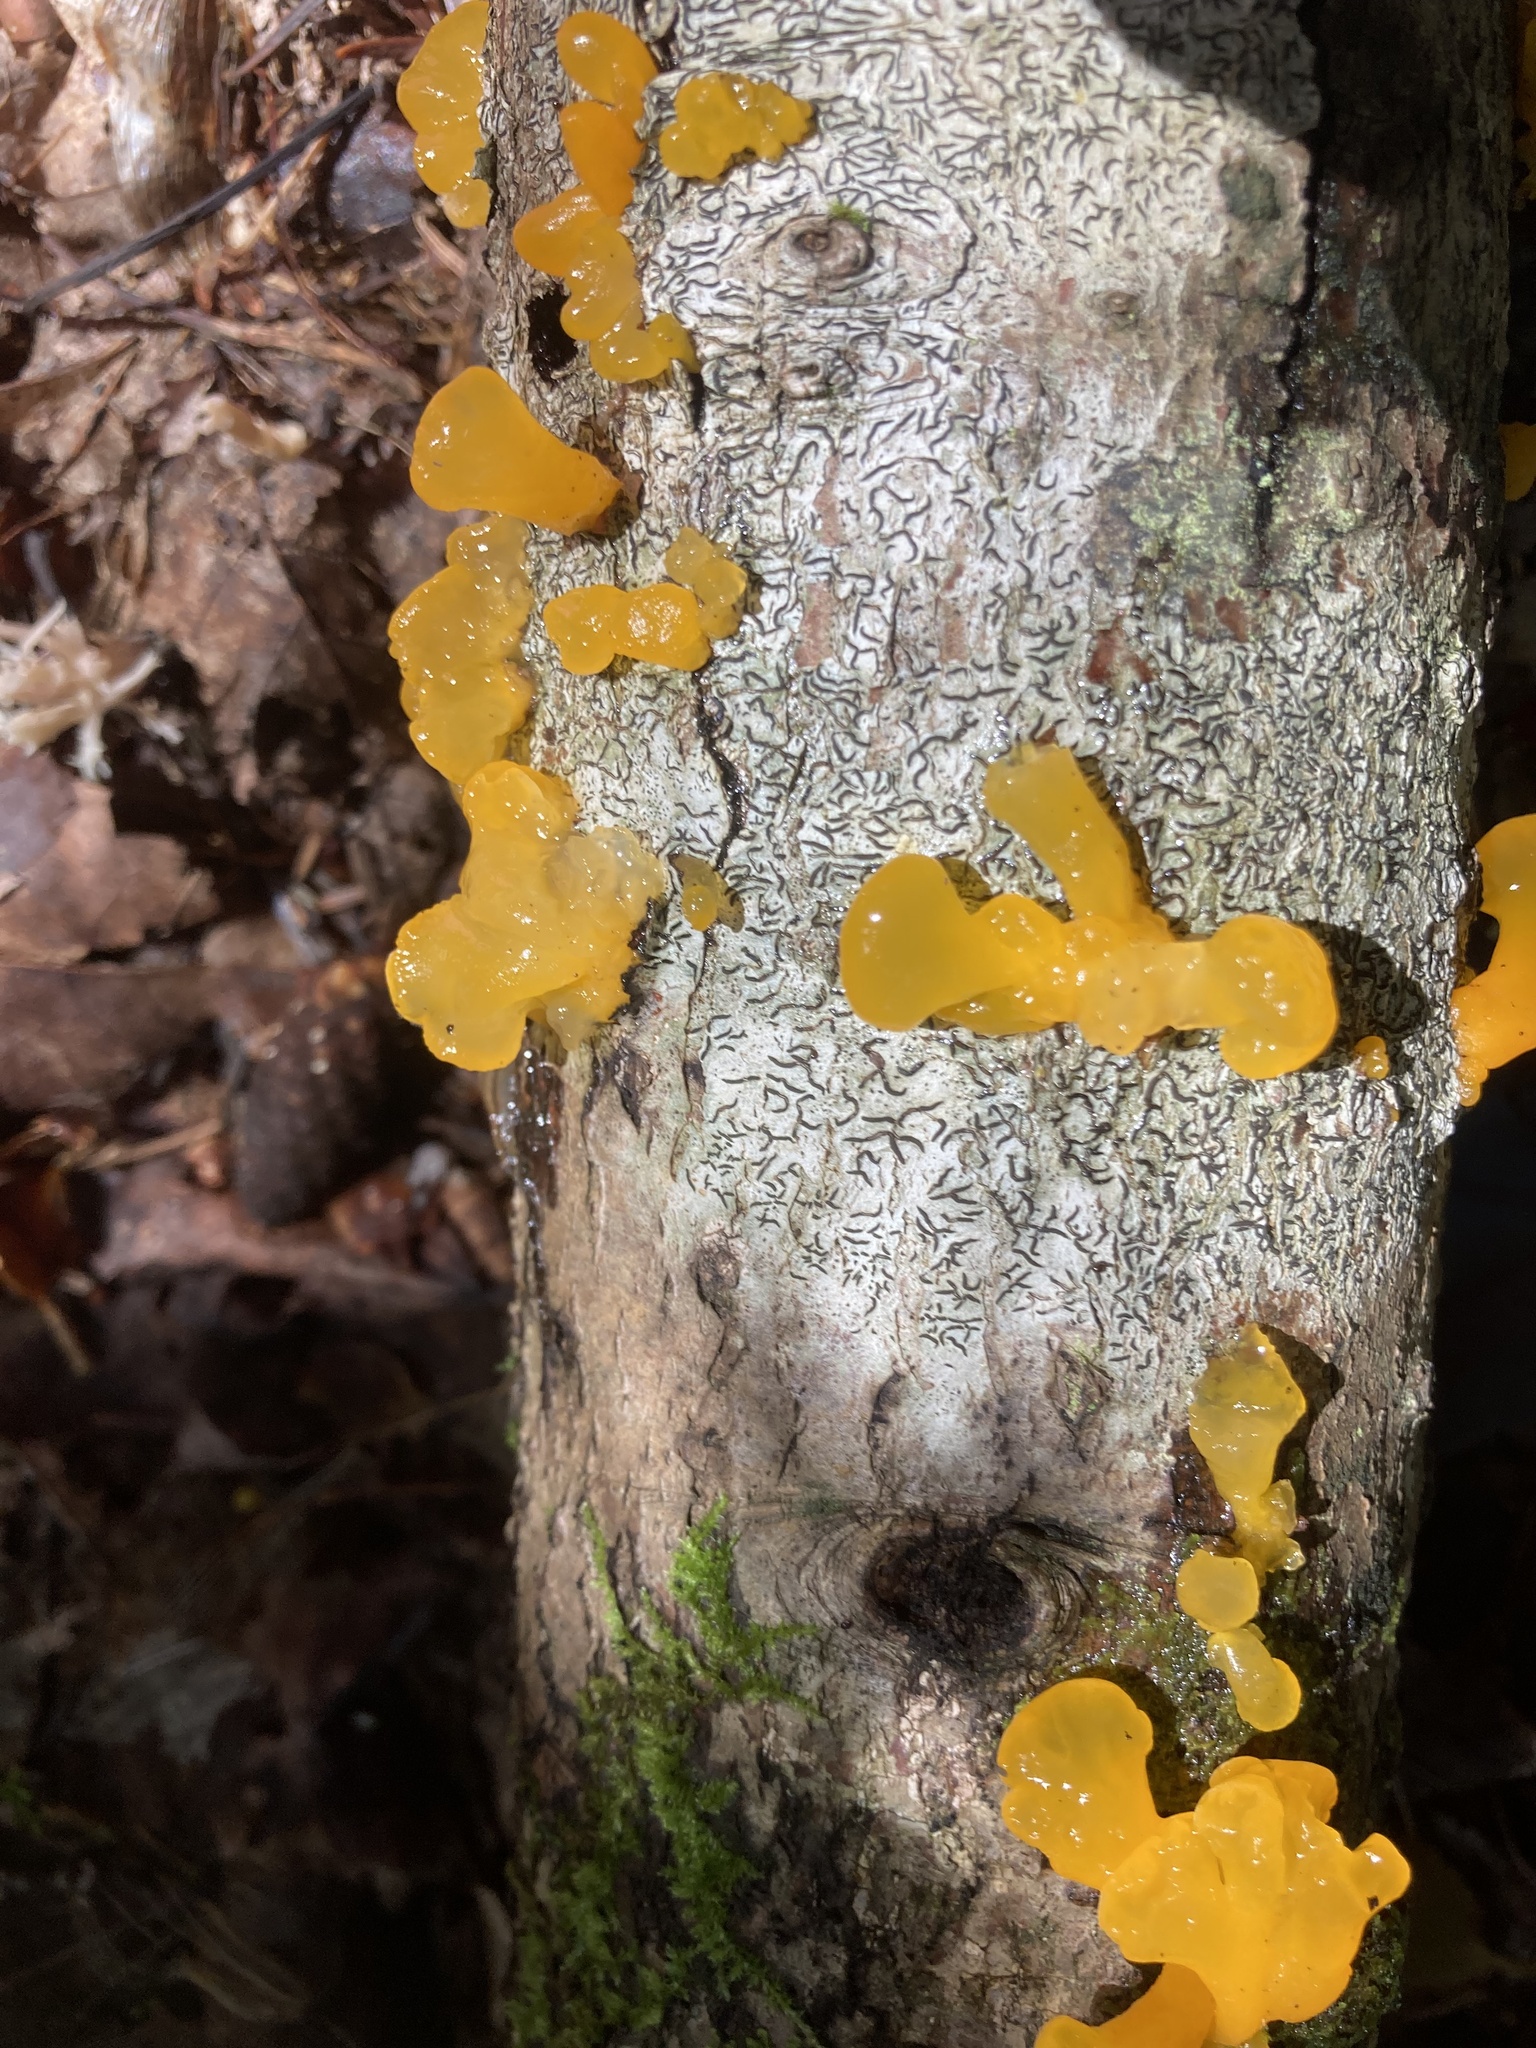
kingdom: Fungi
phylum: Basidiomycota
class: Tremellomycetes
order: Tremellales
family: Tremellaceae
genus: Tremella
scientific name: Tremella mesenterica
